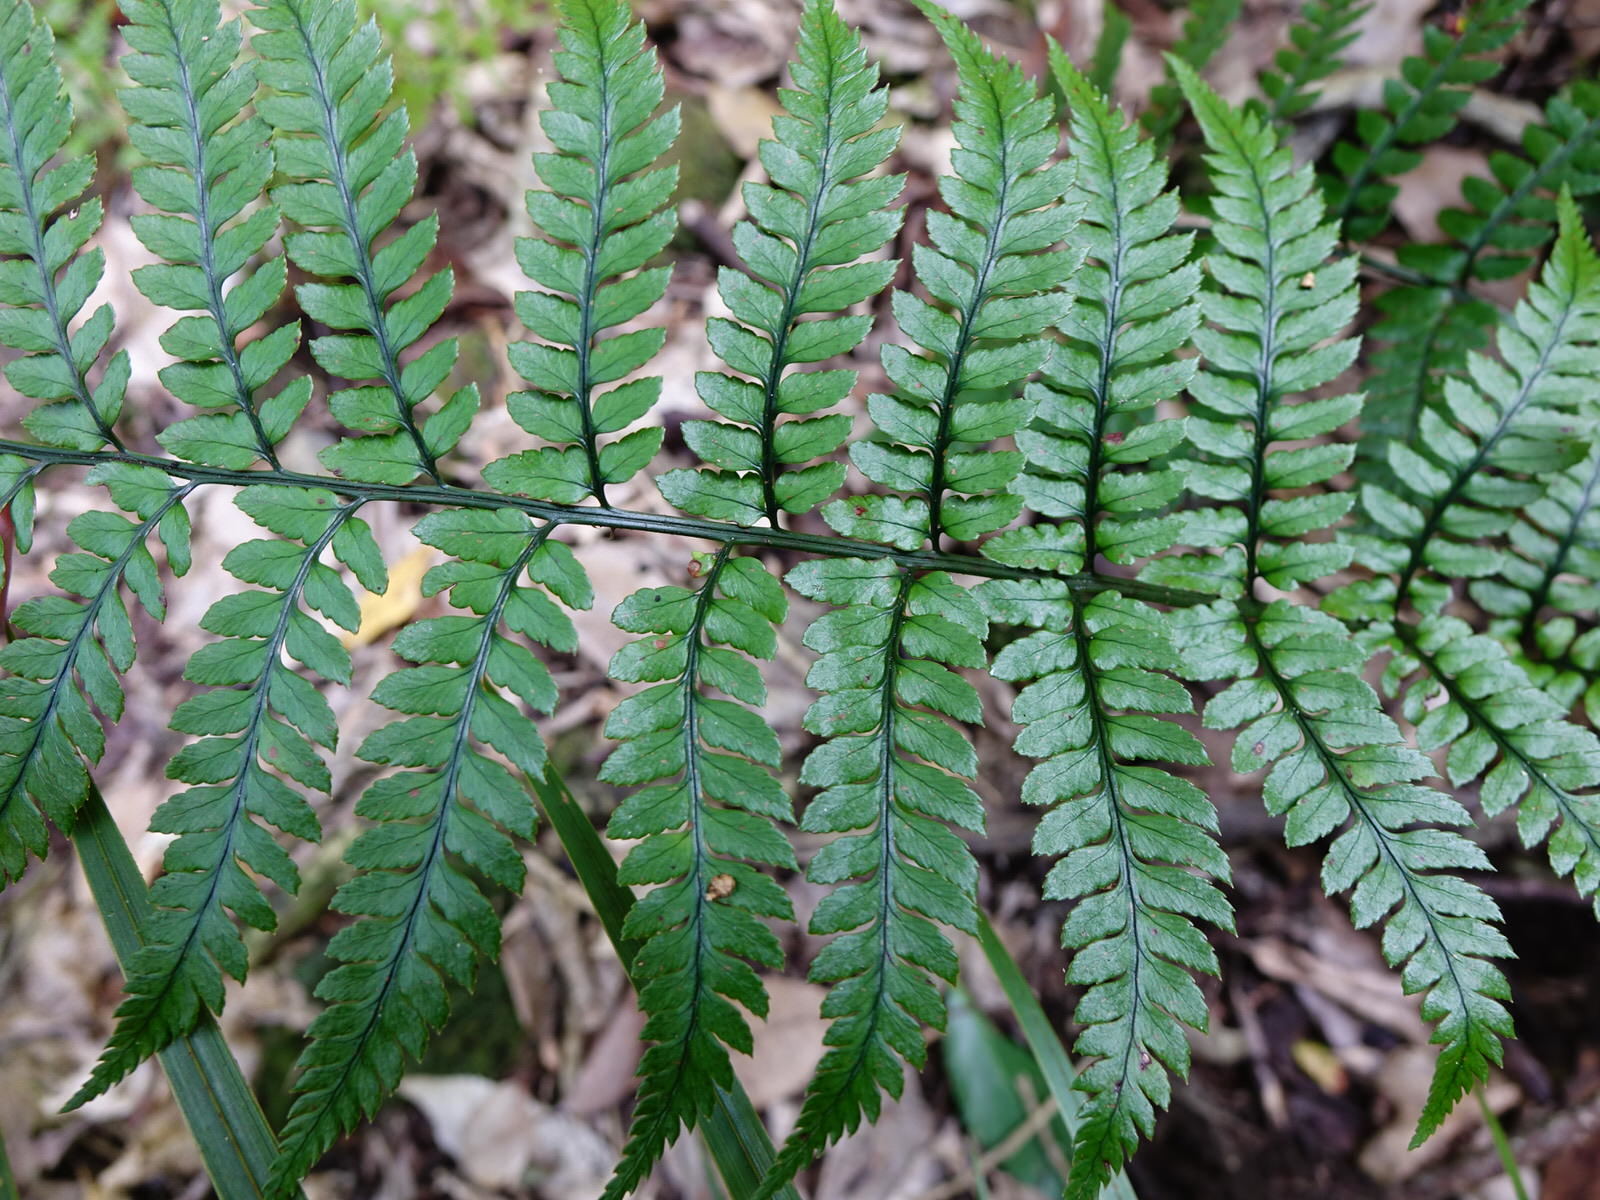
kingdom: Plantae
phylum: Tracheophyta
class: Polypodiopsida
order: Polypodiales
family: Dryopteridaceae
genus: Polystichum
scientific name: Polystichum wawranum
